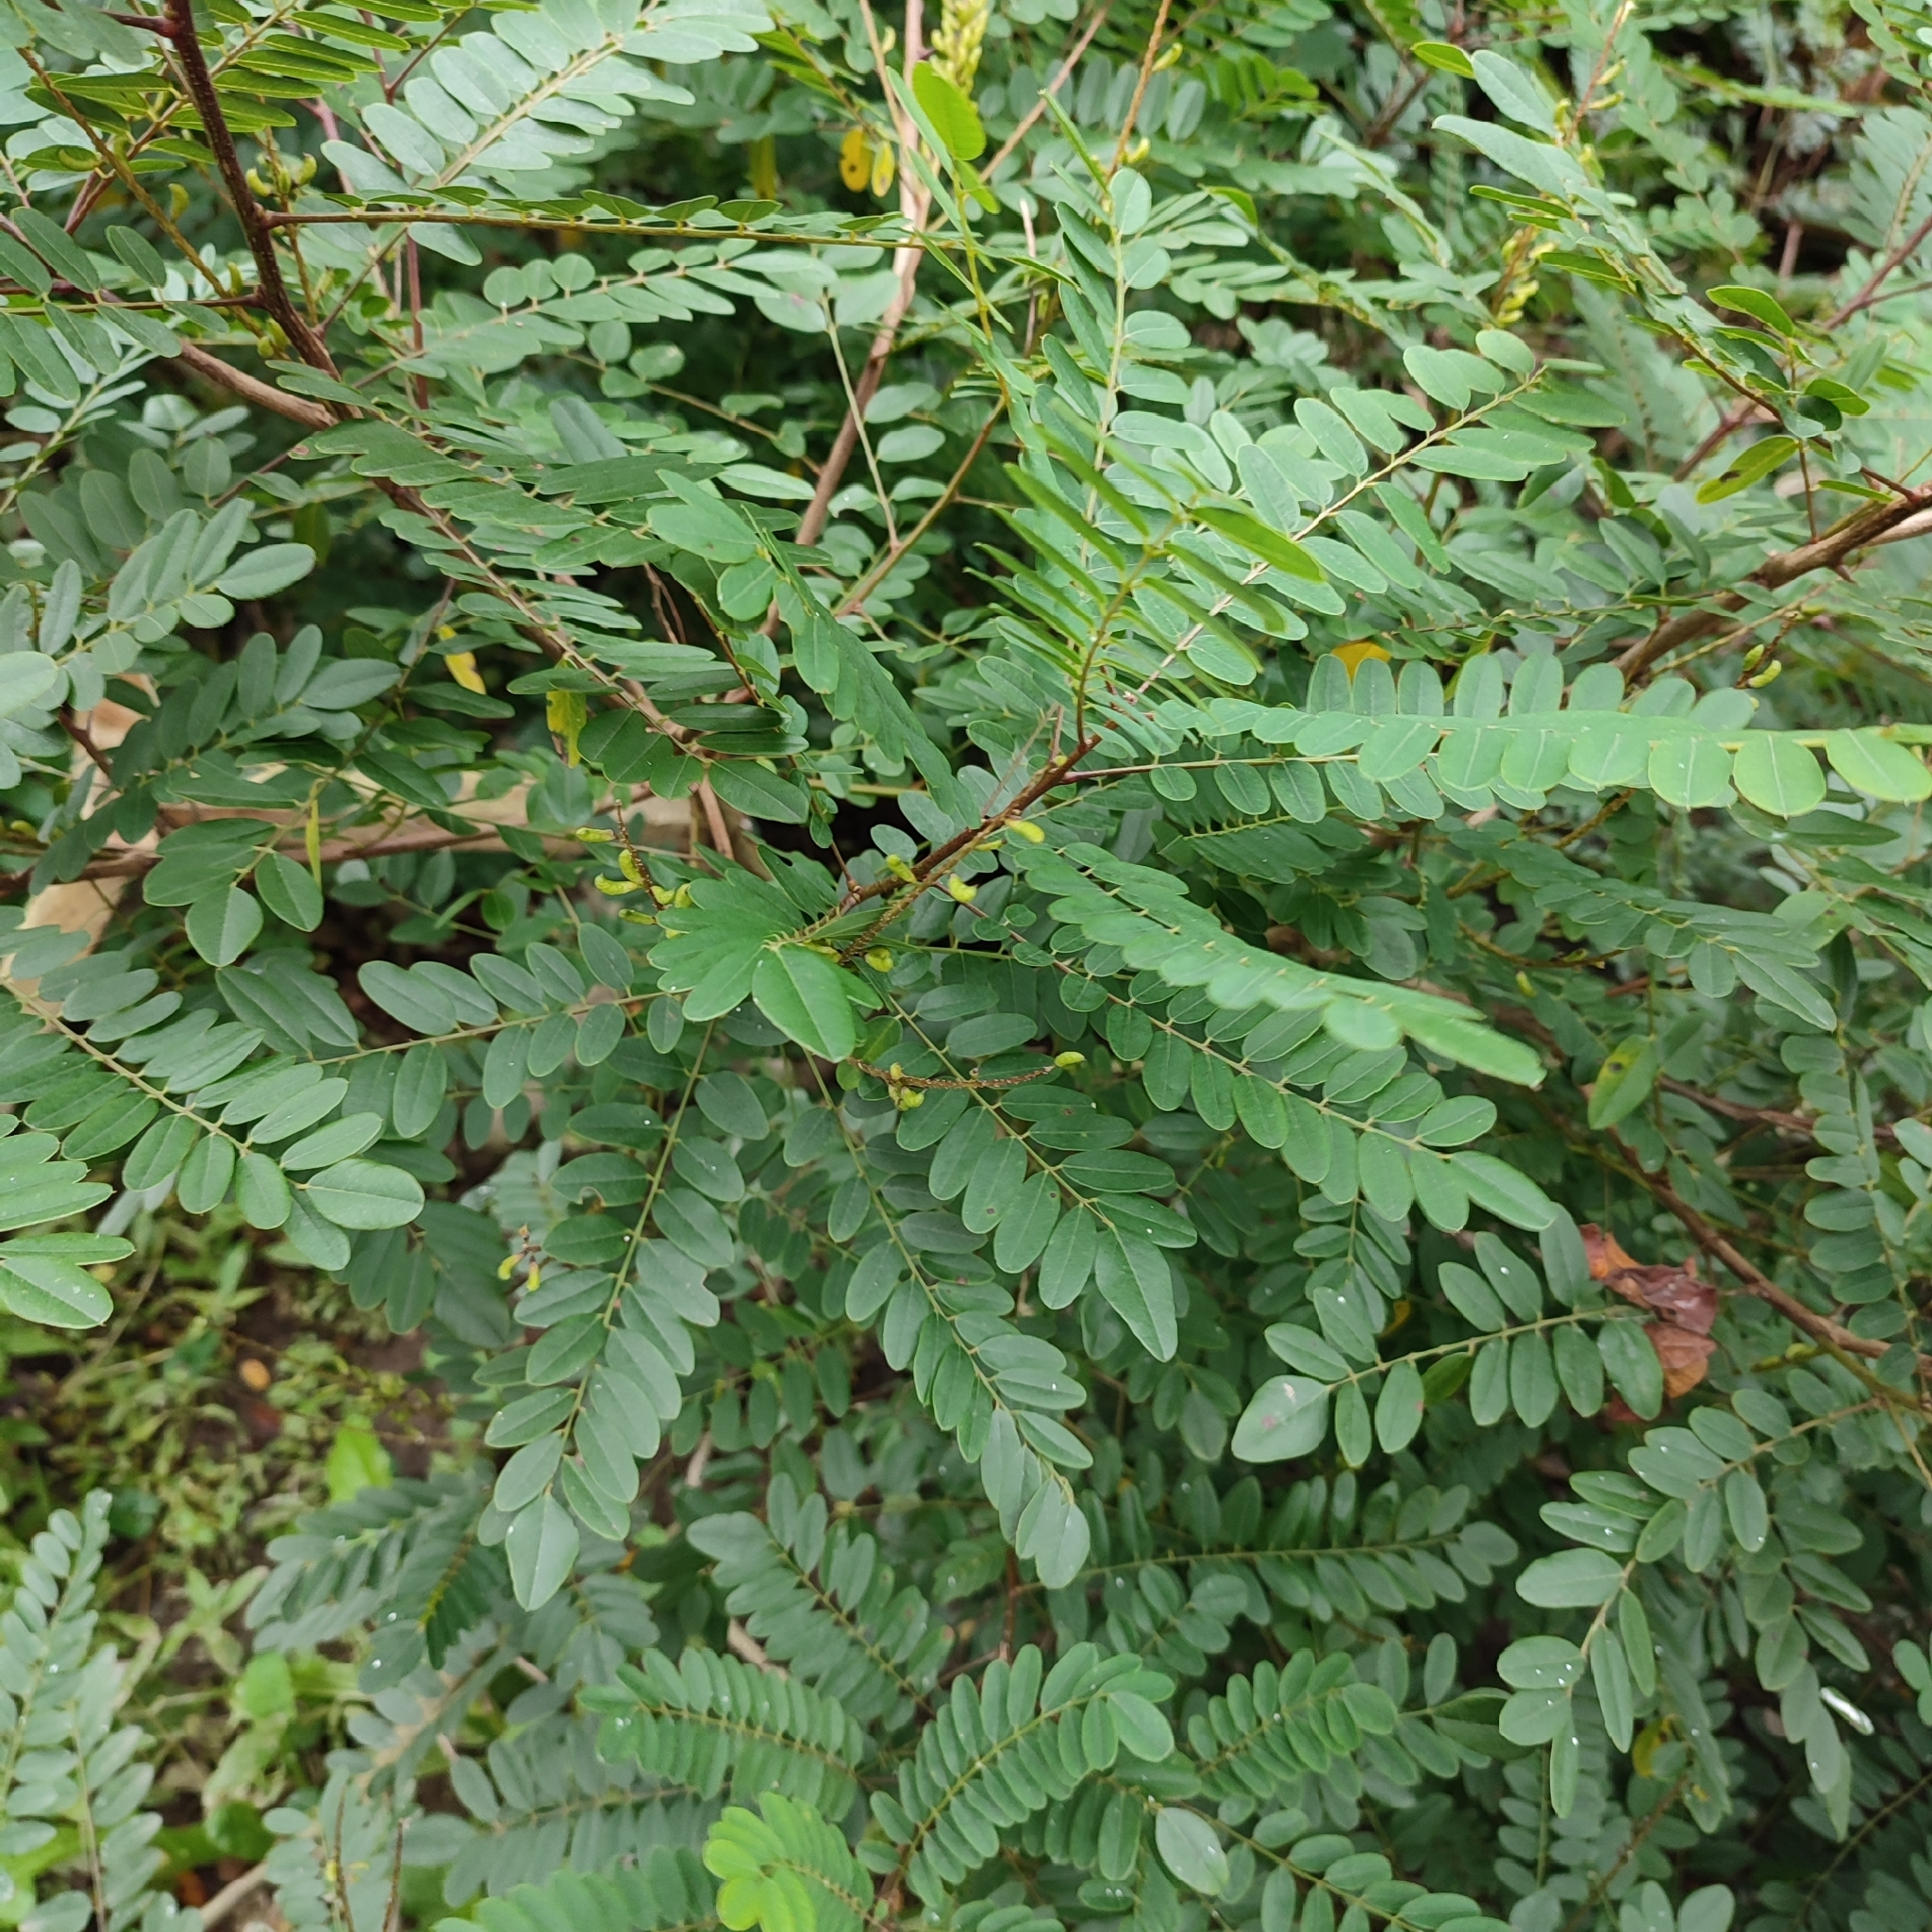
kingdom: Plantae
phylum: Tracheophyta
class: Magnoliopsida
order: Fabales
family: Fabaceae
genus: Amorpha
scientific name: Amorpha fruticosa
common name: False indigo
